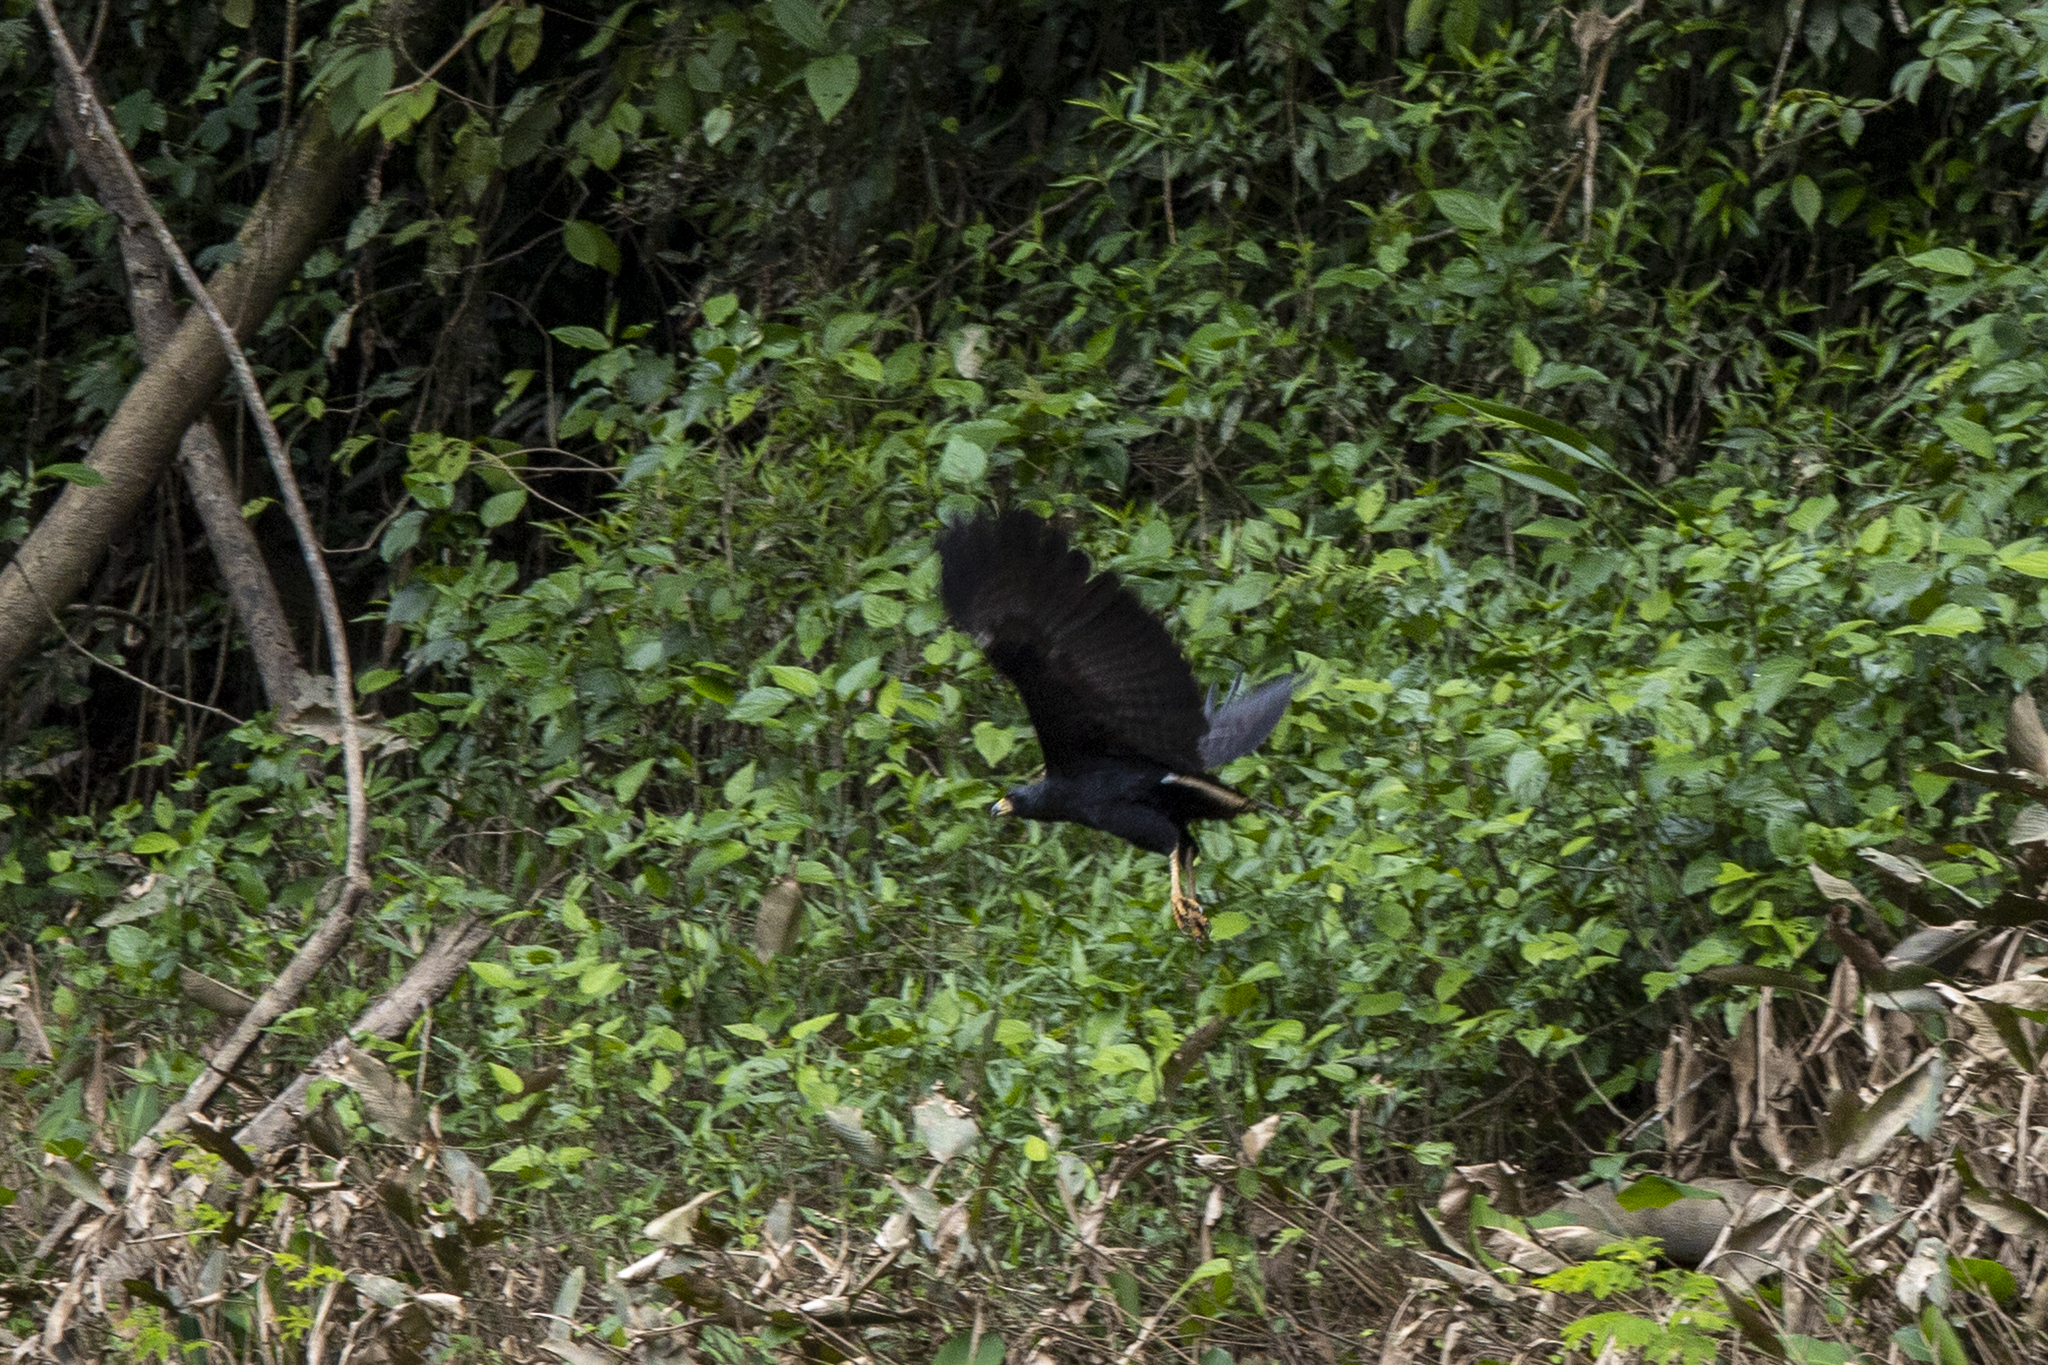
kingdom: Animalia
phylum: Chordata
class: Aves
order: Accipitriformes
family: Accipitridae
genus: Buteogallus
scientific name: Buteogallus urubitinga
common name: Great black hawk
